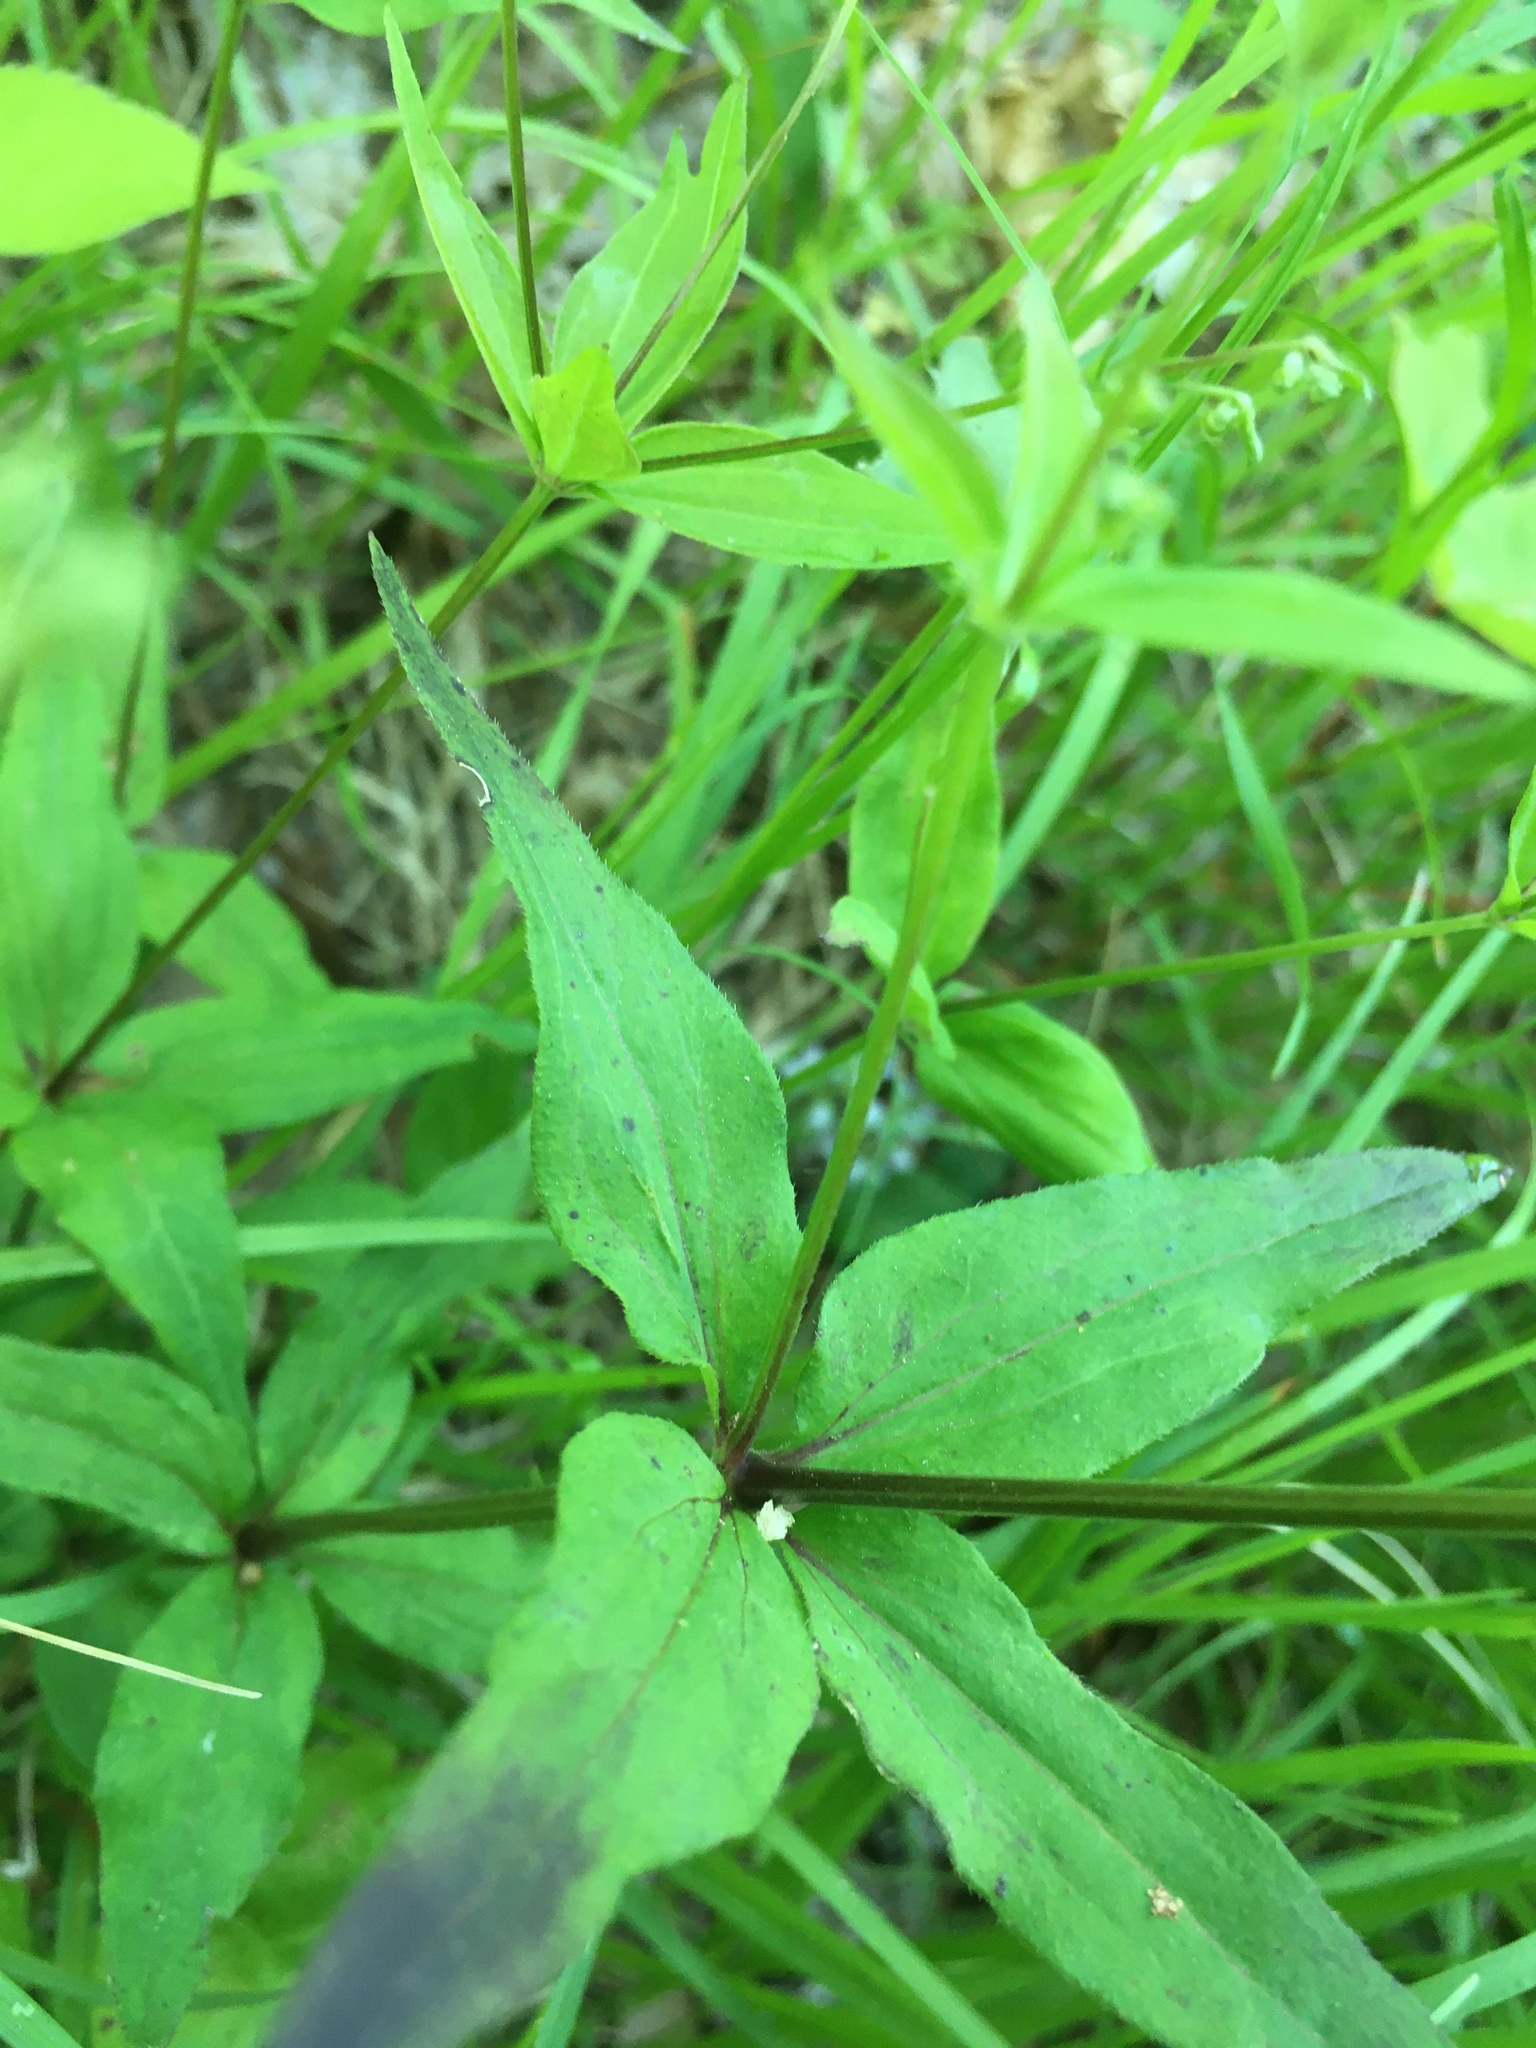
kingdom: Plantae
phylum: Tracheophyta
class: Magnoliopsida
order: Gentianales
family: Rubiaceae
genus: Galium
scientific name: Galium lanceolatum
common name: Lance-leaved wild licorice
